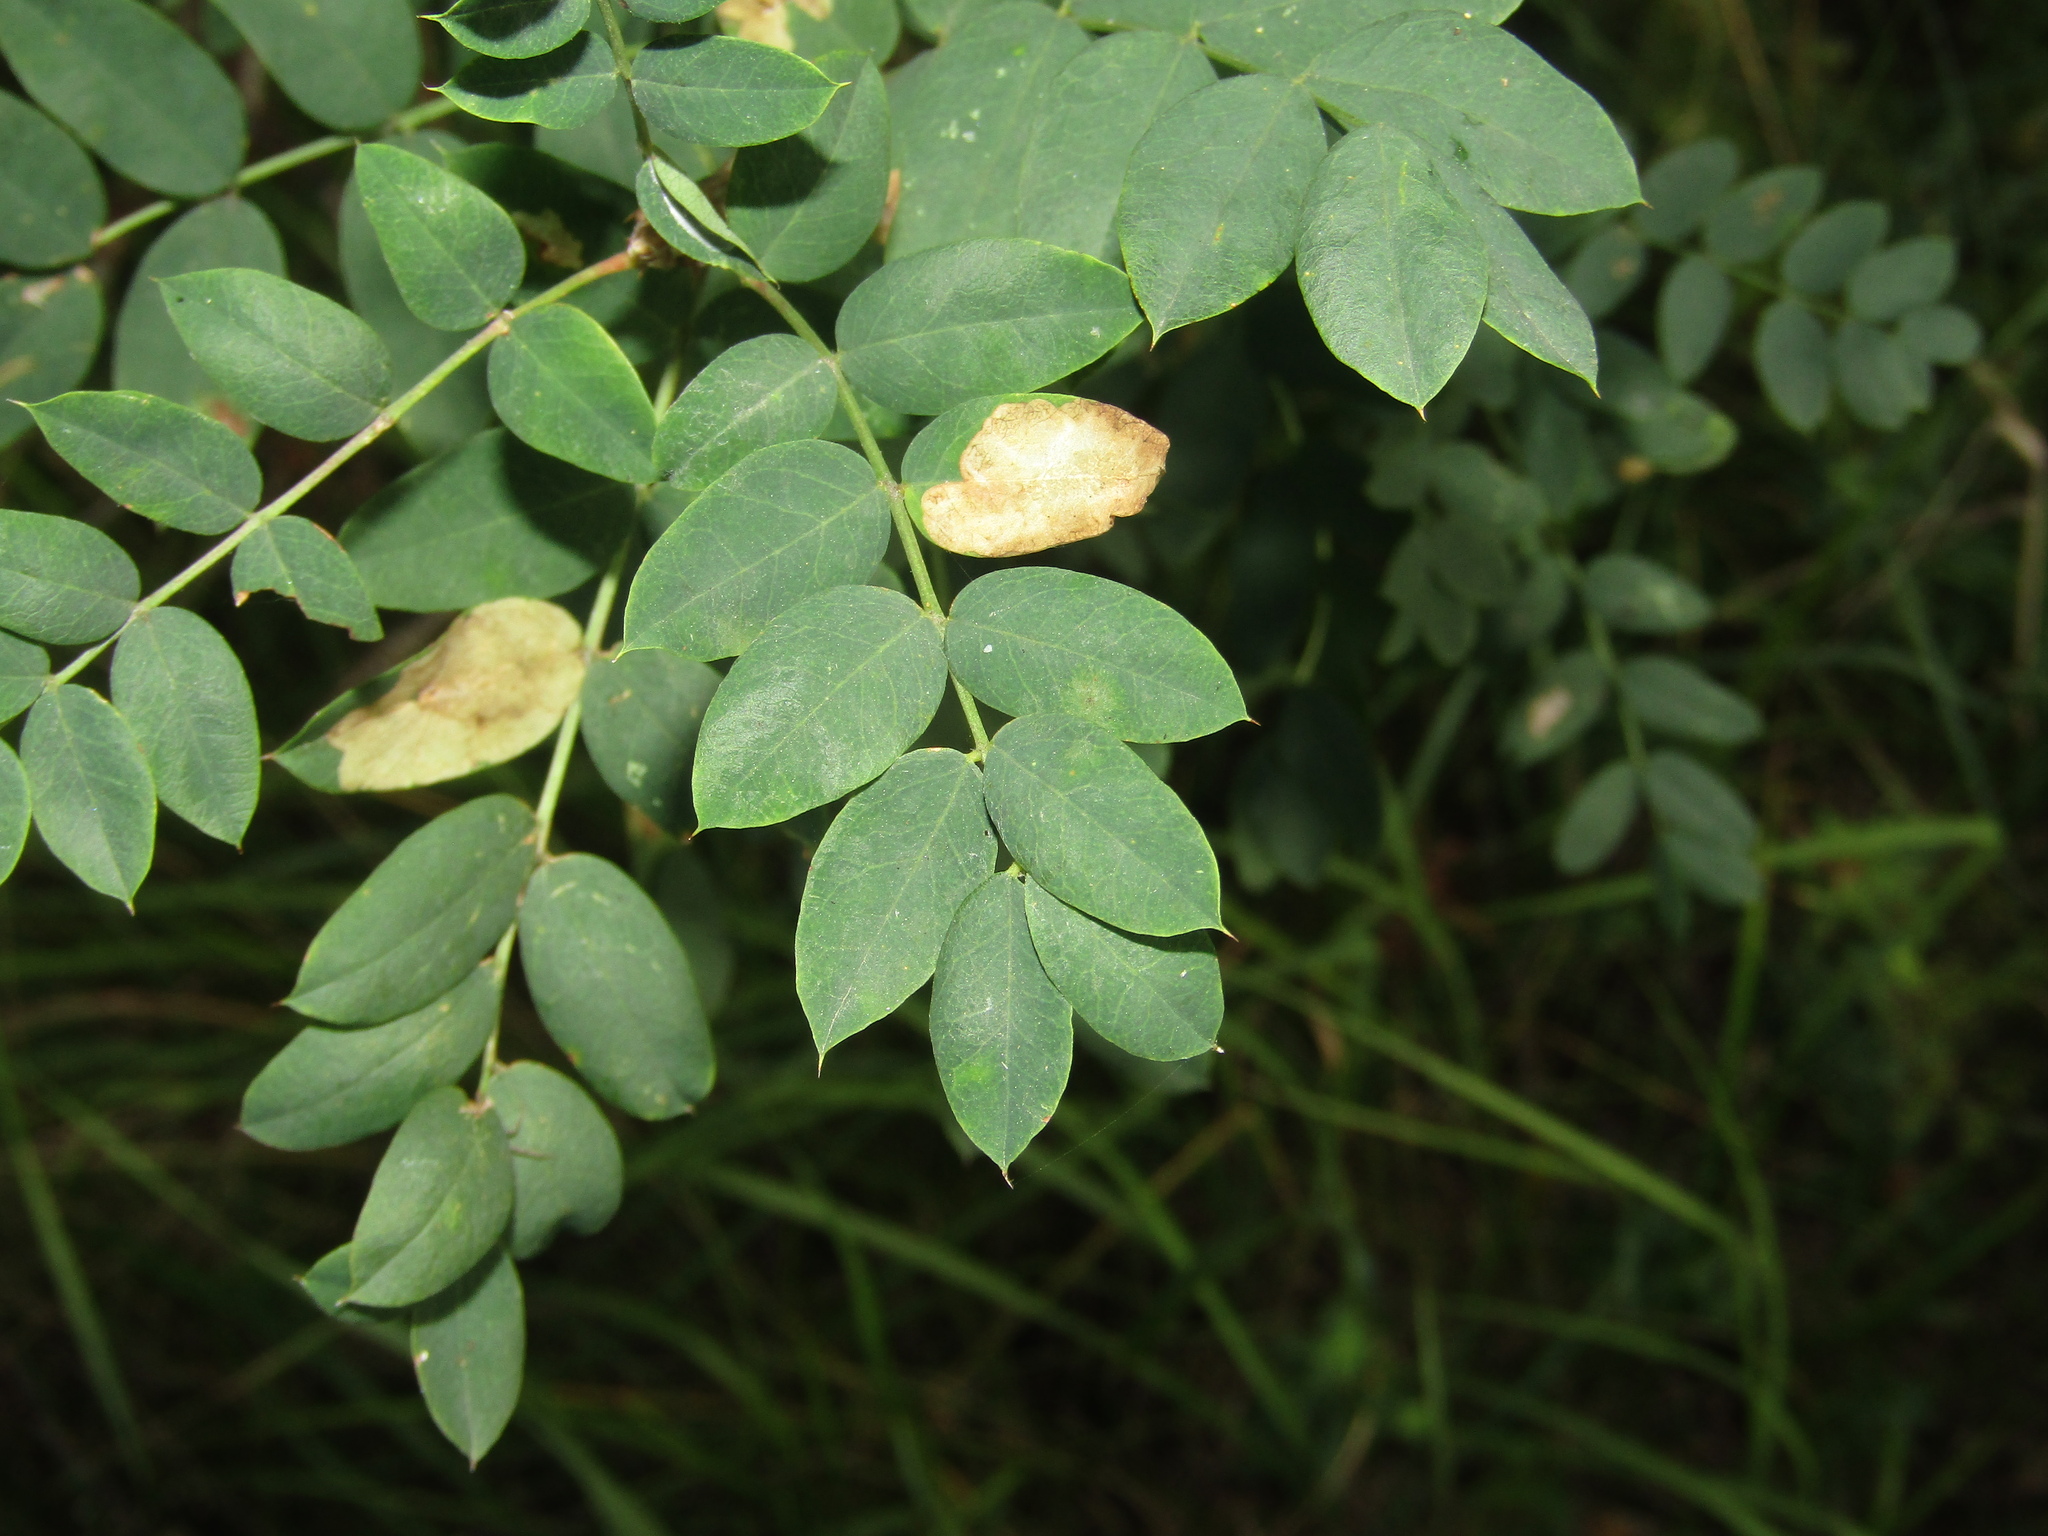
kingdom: Plantae
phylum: Tracheophyta
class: Magnoliopsida
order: Fabales
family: Fabaceae
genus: Caragana
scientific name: Caragana arborescens
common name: Siberian peashrub
